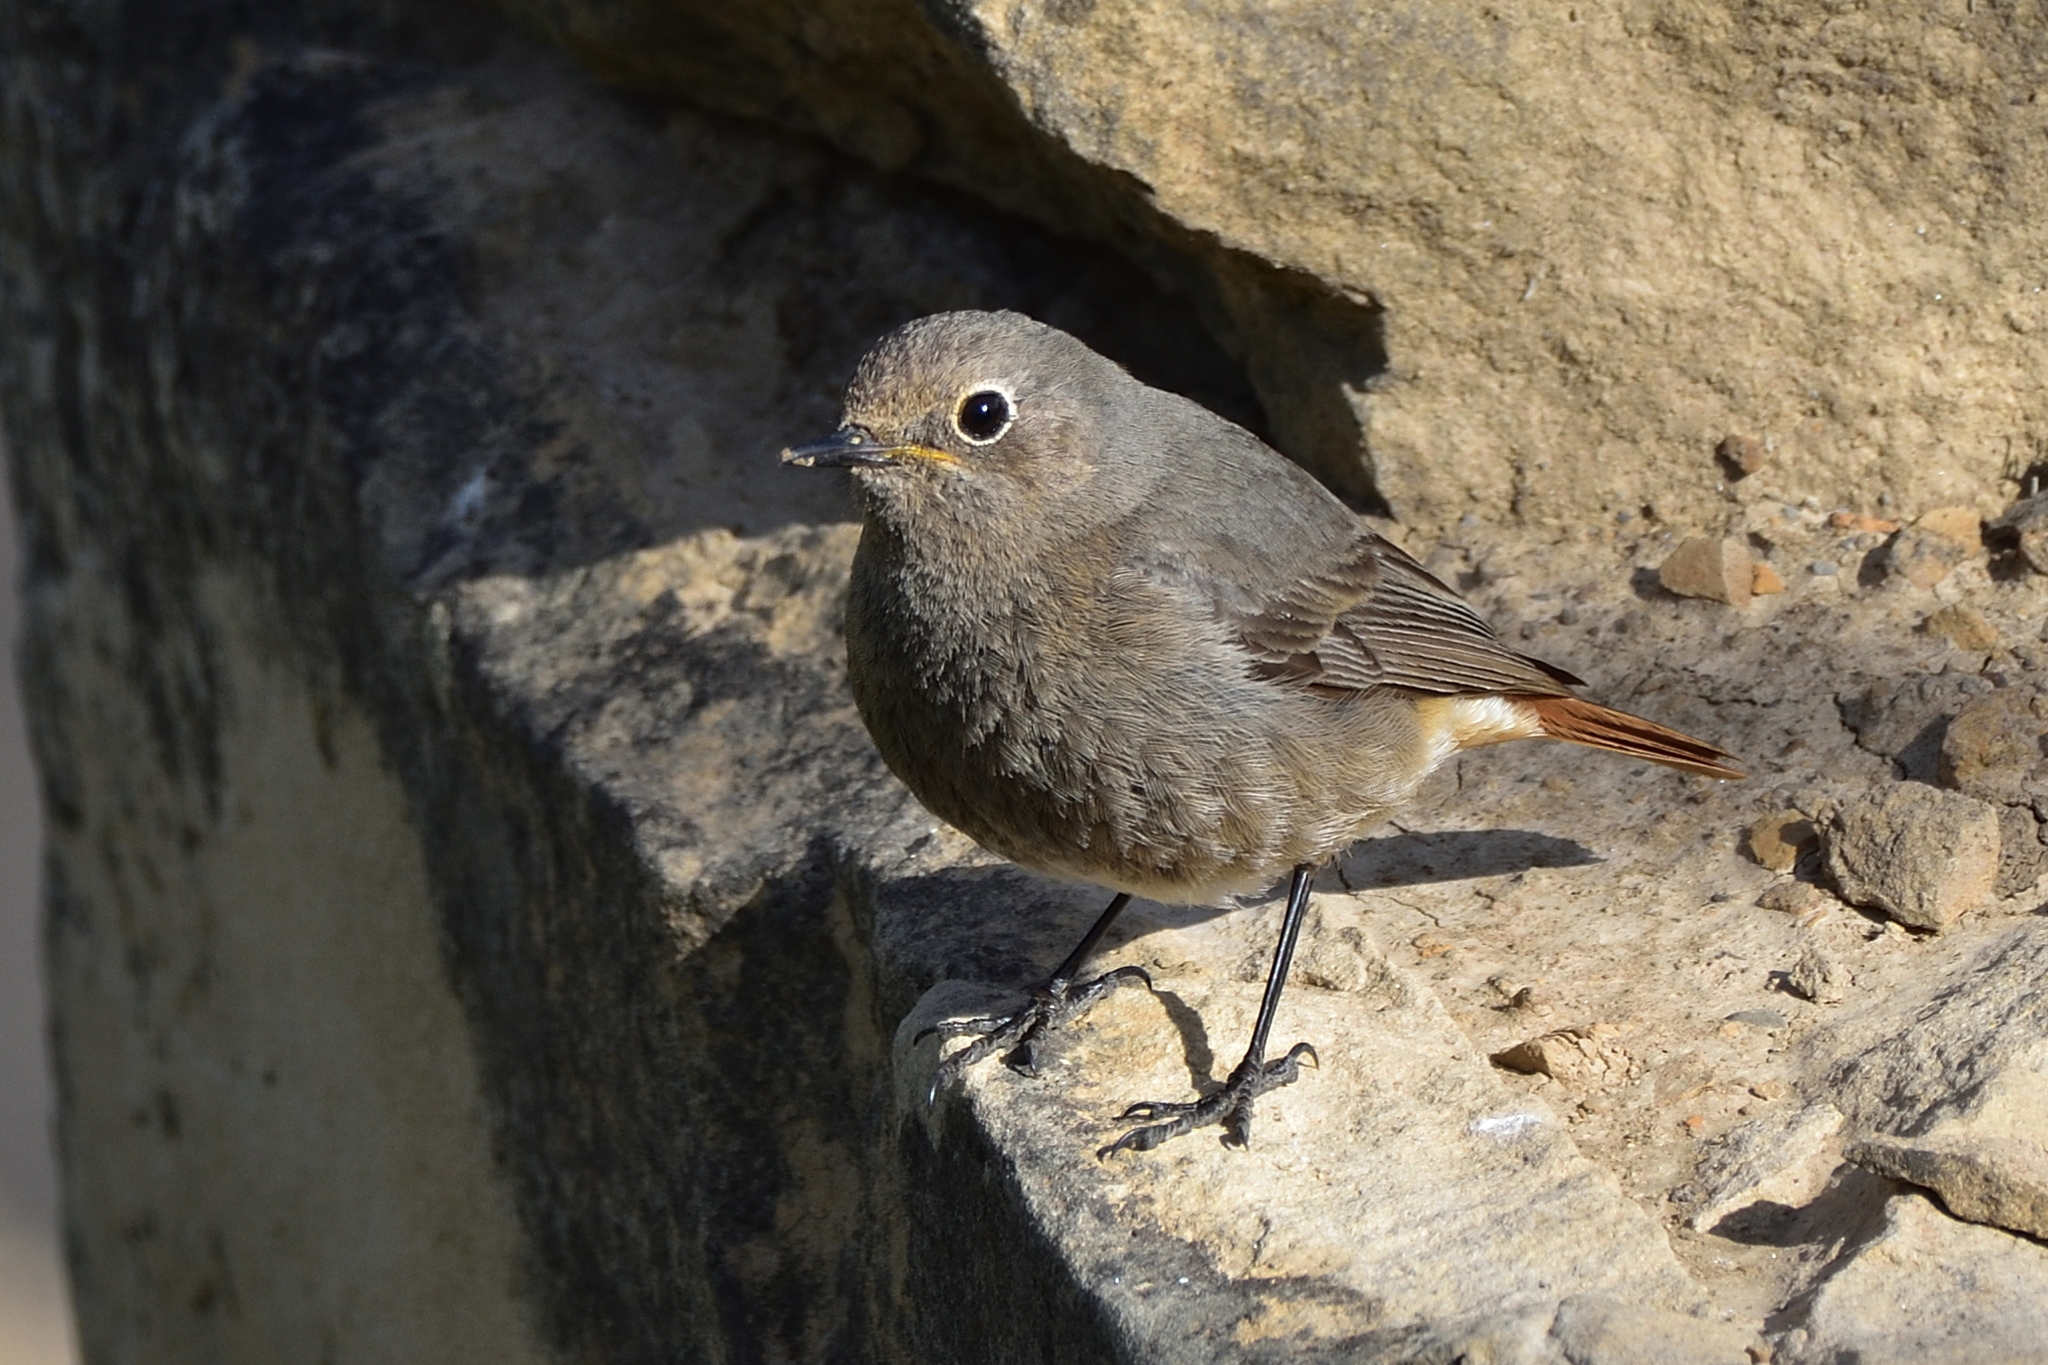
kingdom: Animalia
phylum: Chordata
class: Aves
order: Passeriformes
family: Muscicapidae
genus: Phoenicurus
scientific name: Phoenicurus ochruros
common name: Black redstart
